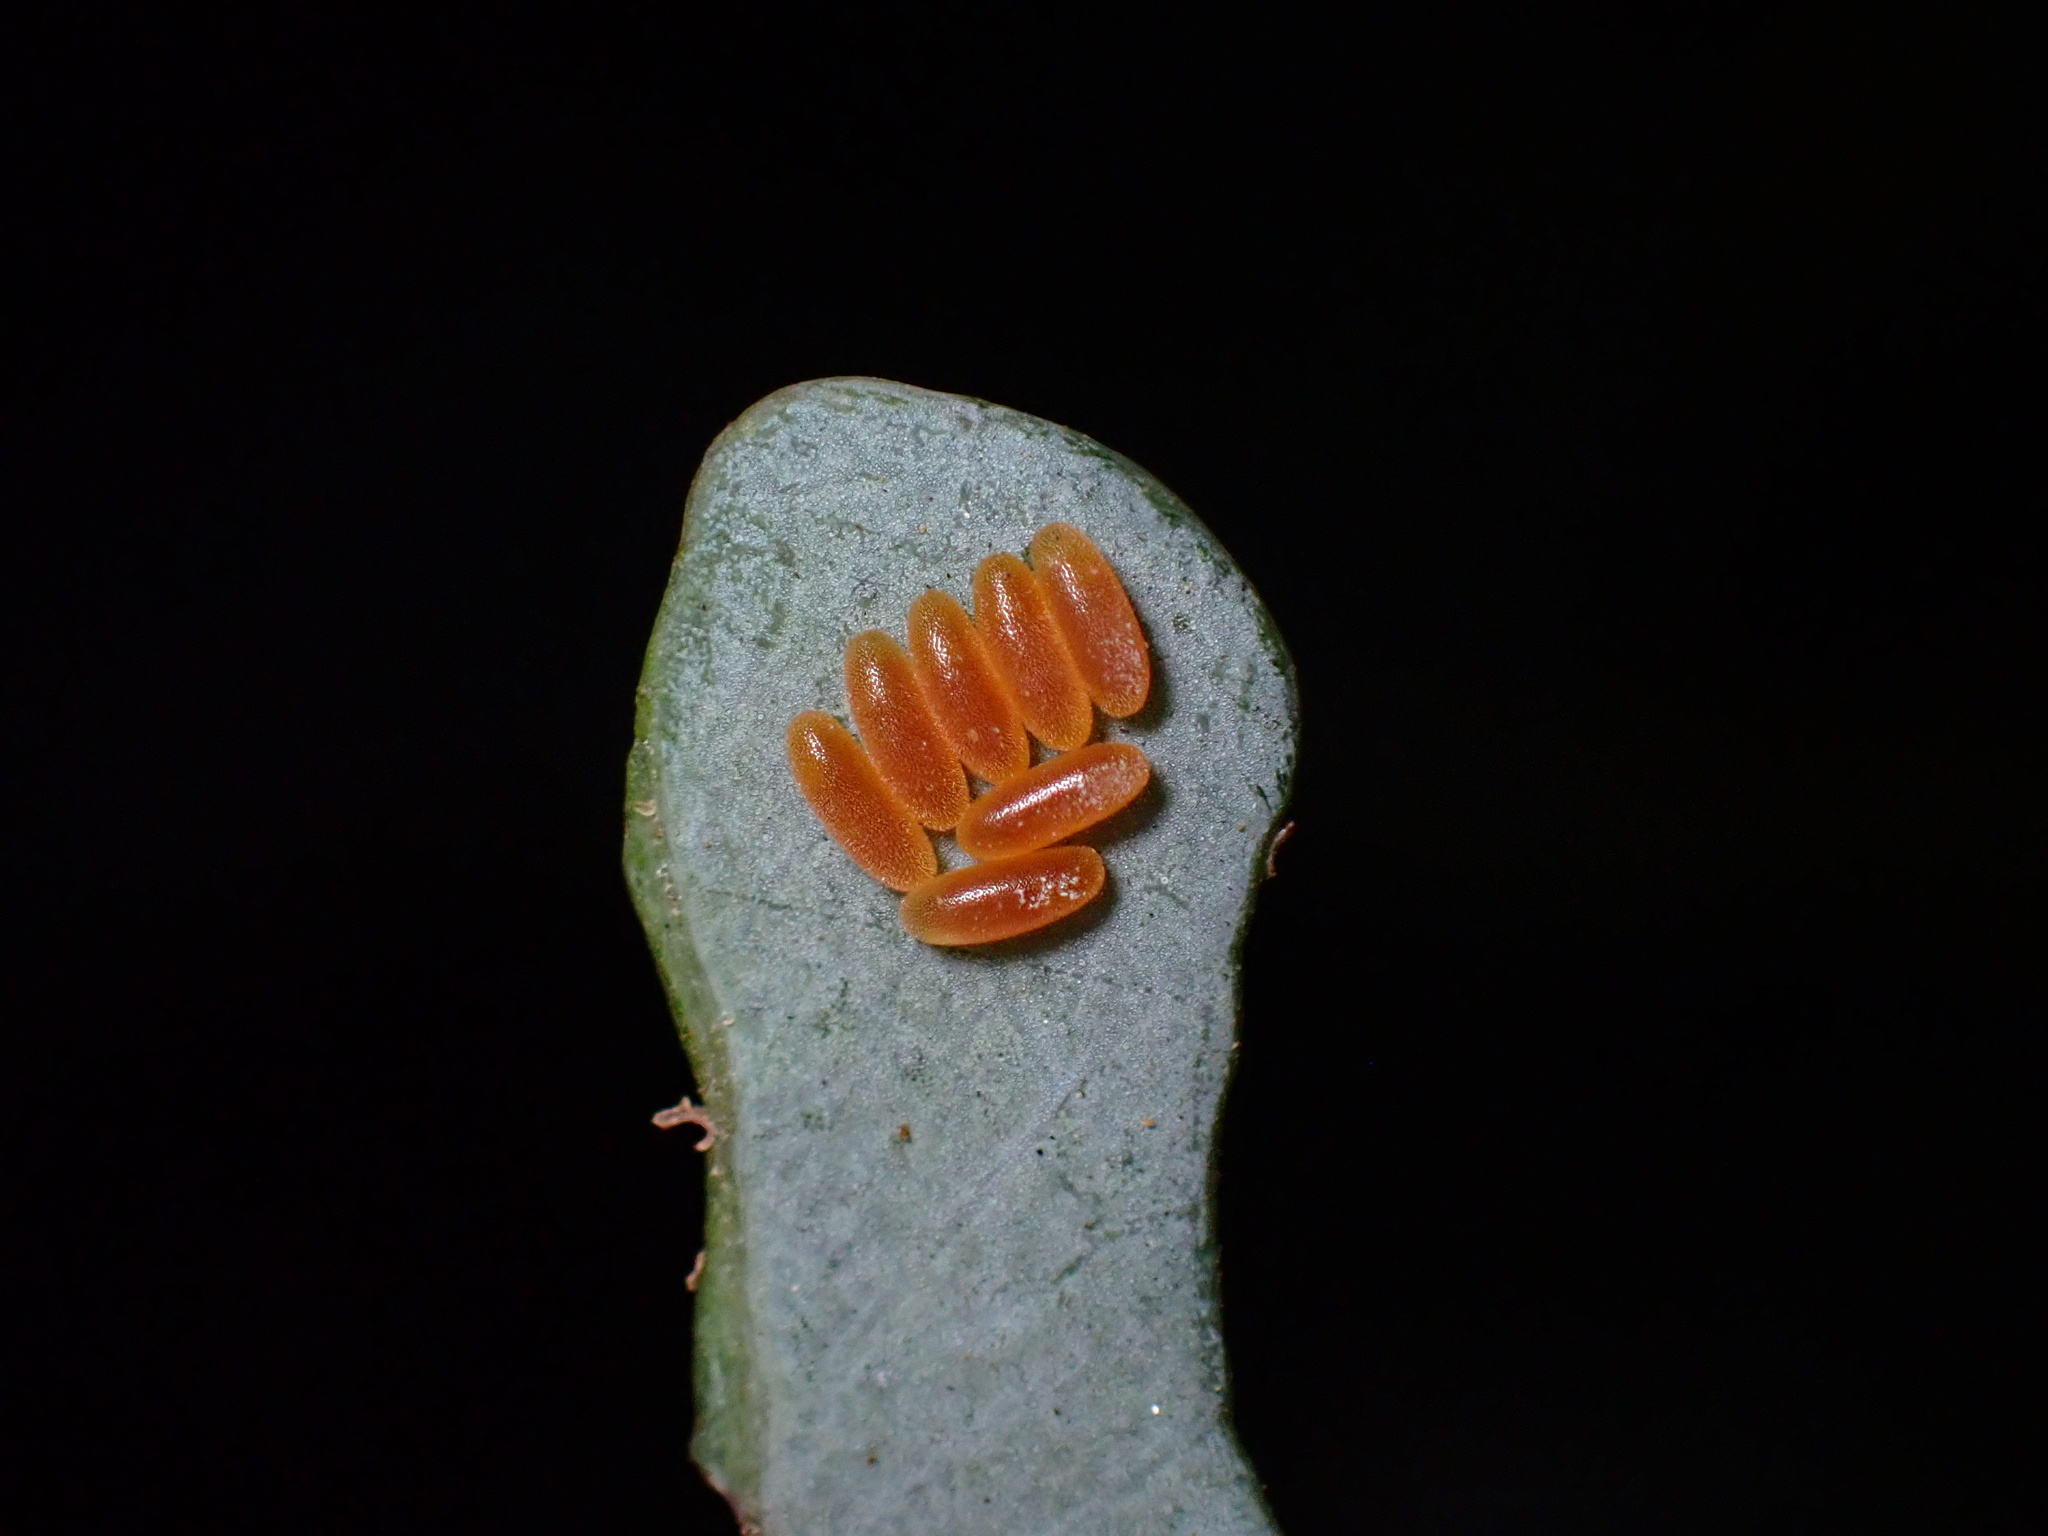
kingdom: Animalia
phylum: Arthropoda
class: Insecta
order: Coleoptera
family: Chrysomelidae
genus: Paropsisterna
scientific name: Paropsisterna m-fuscum
